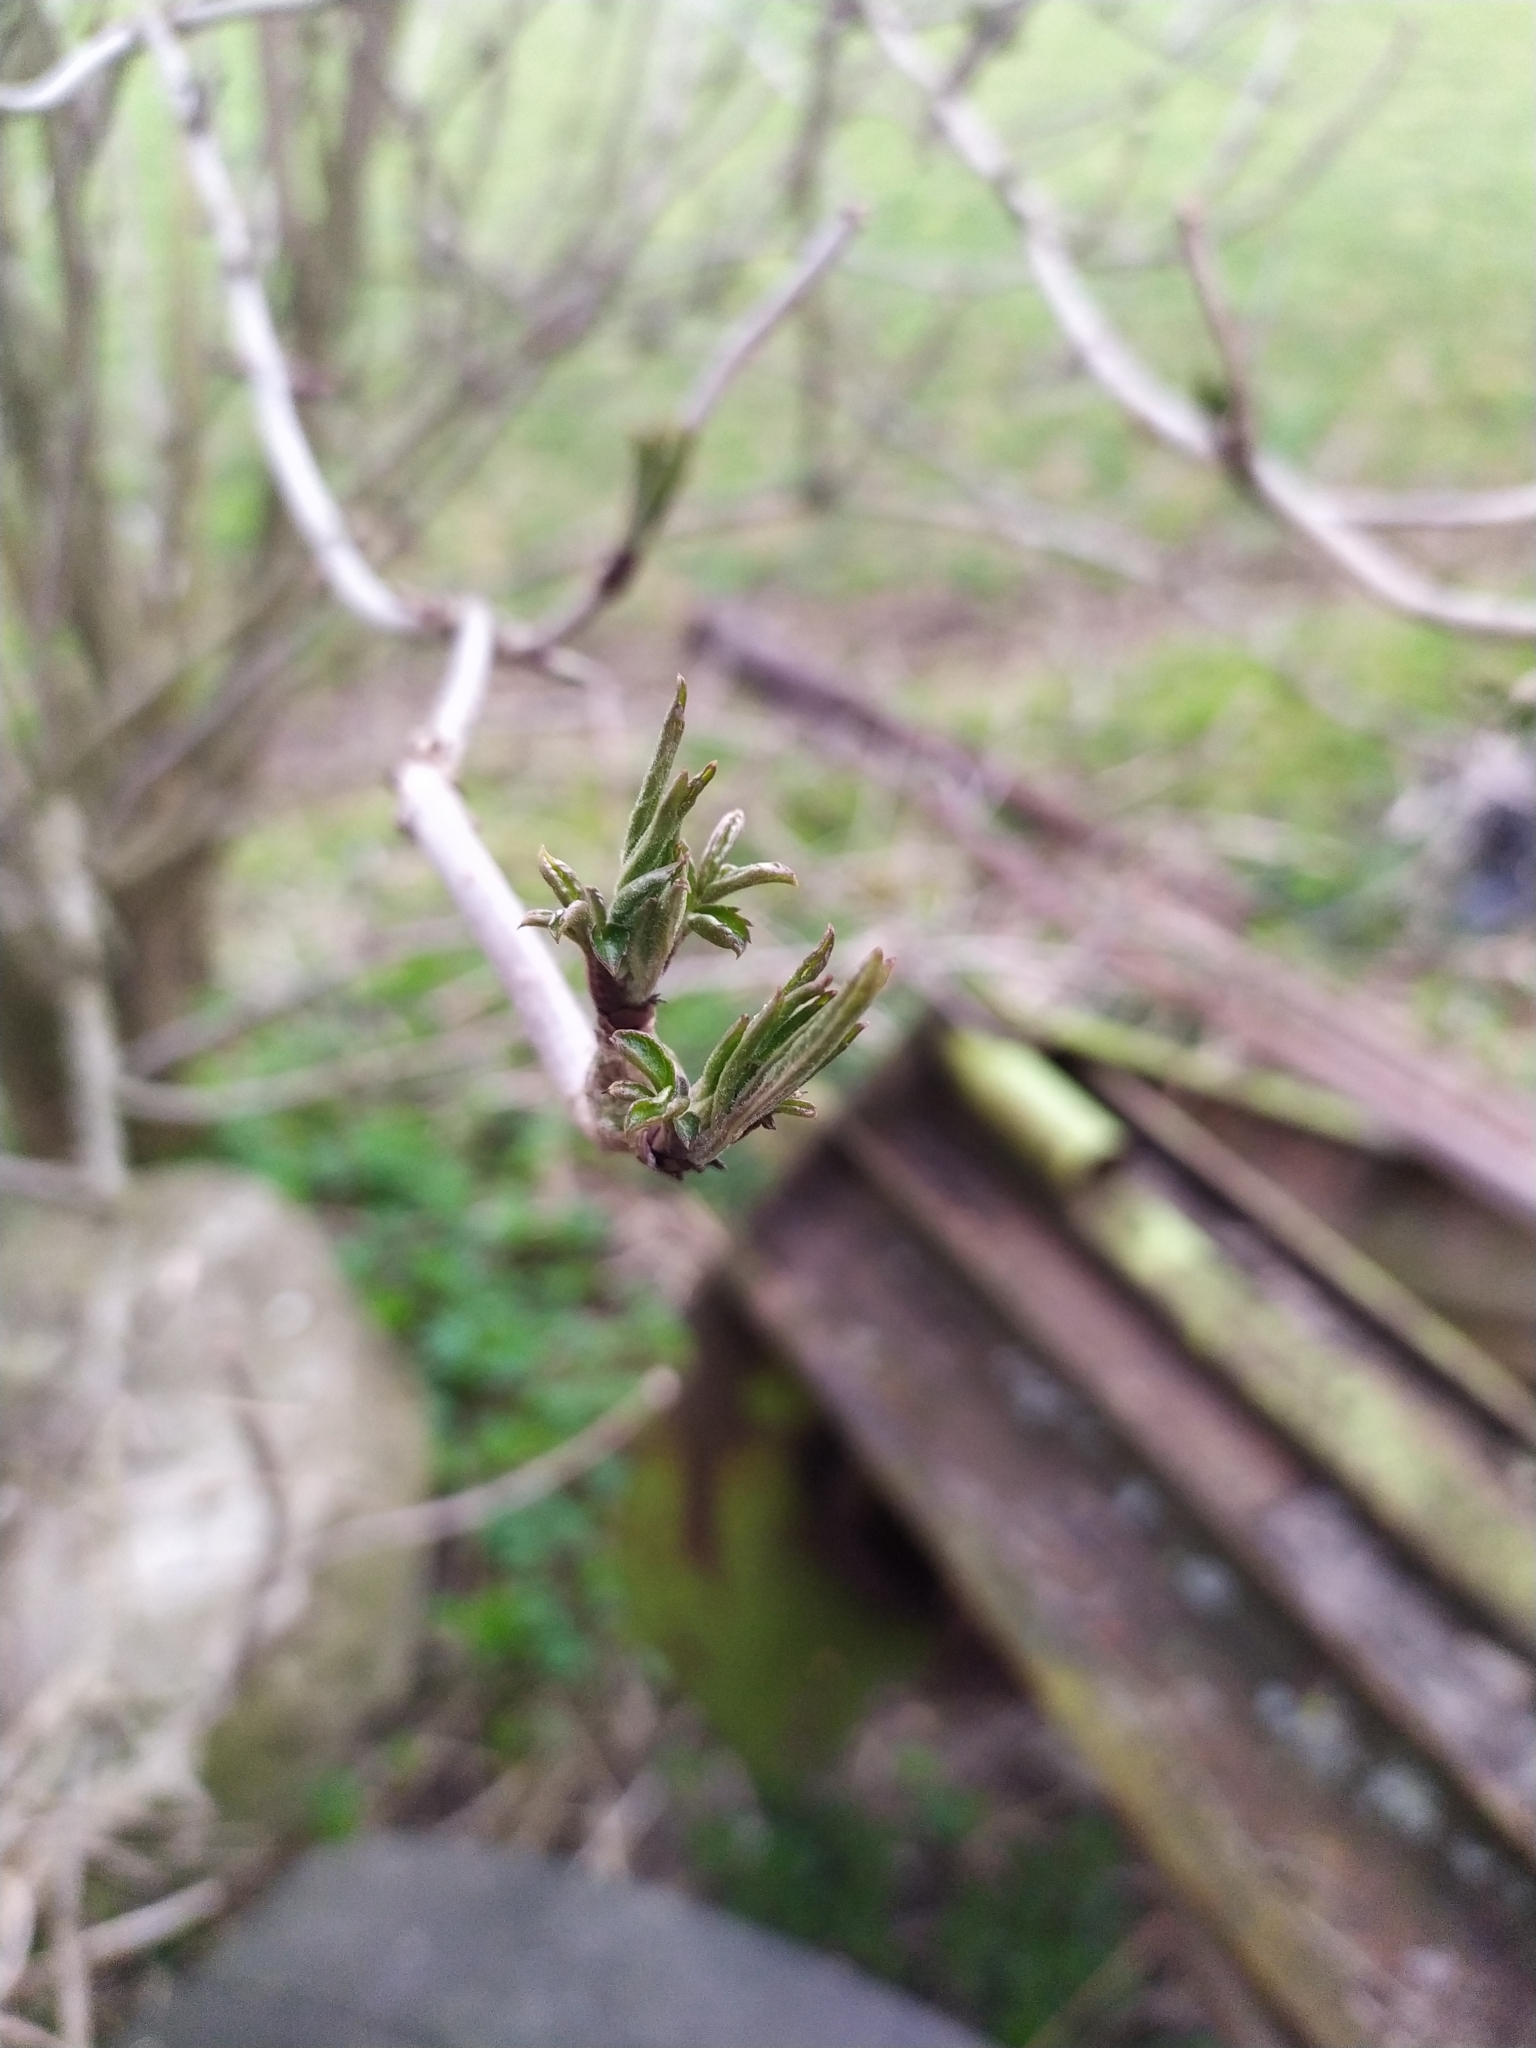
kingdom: Plantae
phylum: Tracheophyta
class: Magnoliopsida
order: Dipsacales
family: Viburnaceae
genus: Sambucus
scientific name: Sambucus nigra
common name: Elder
